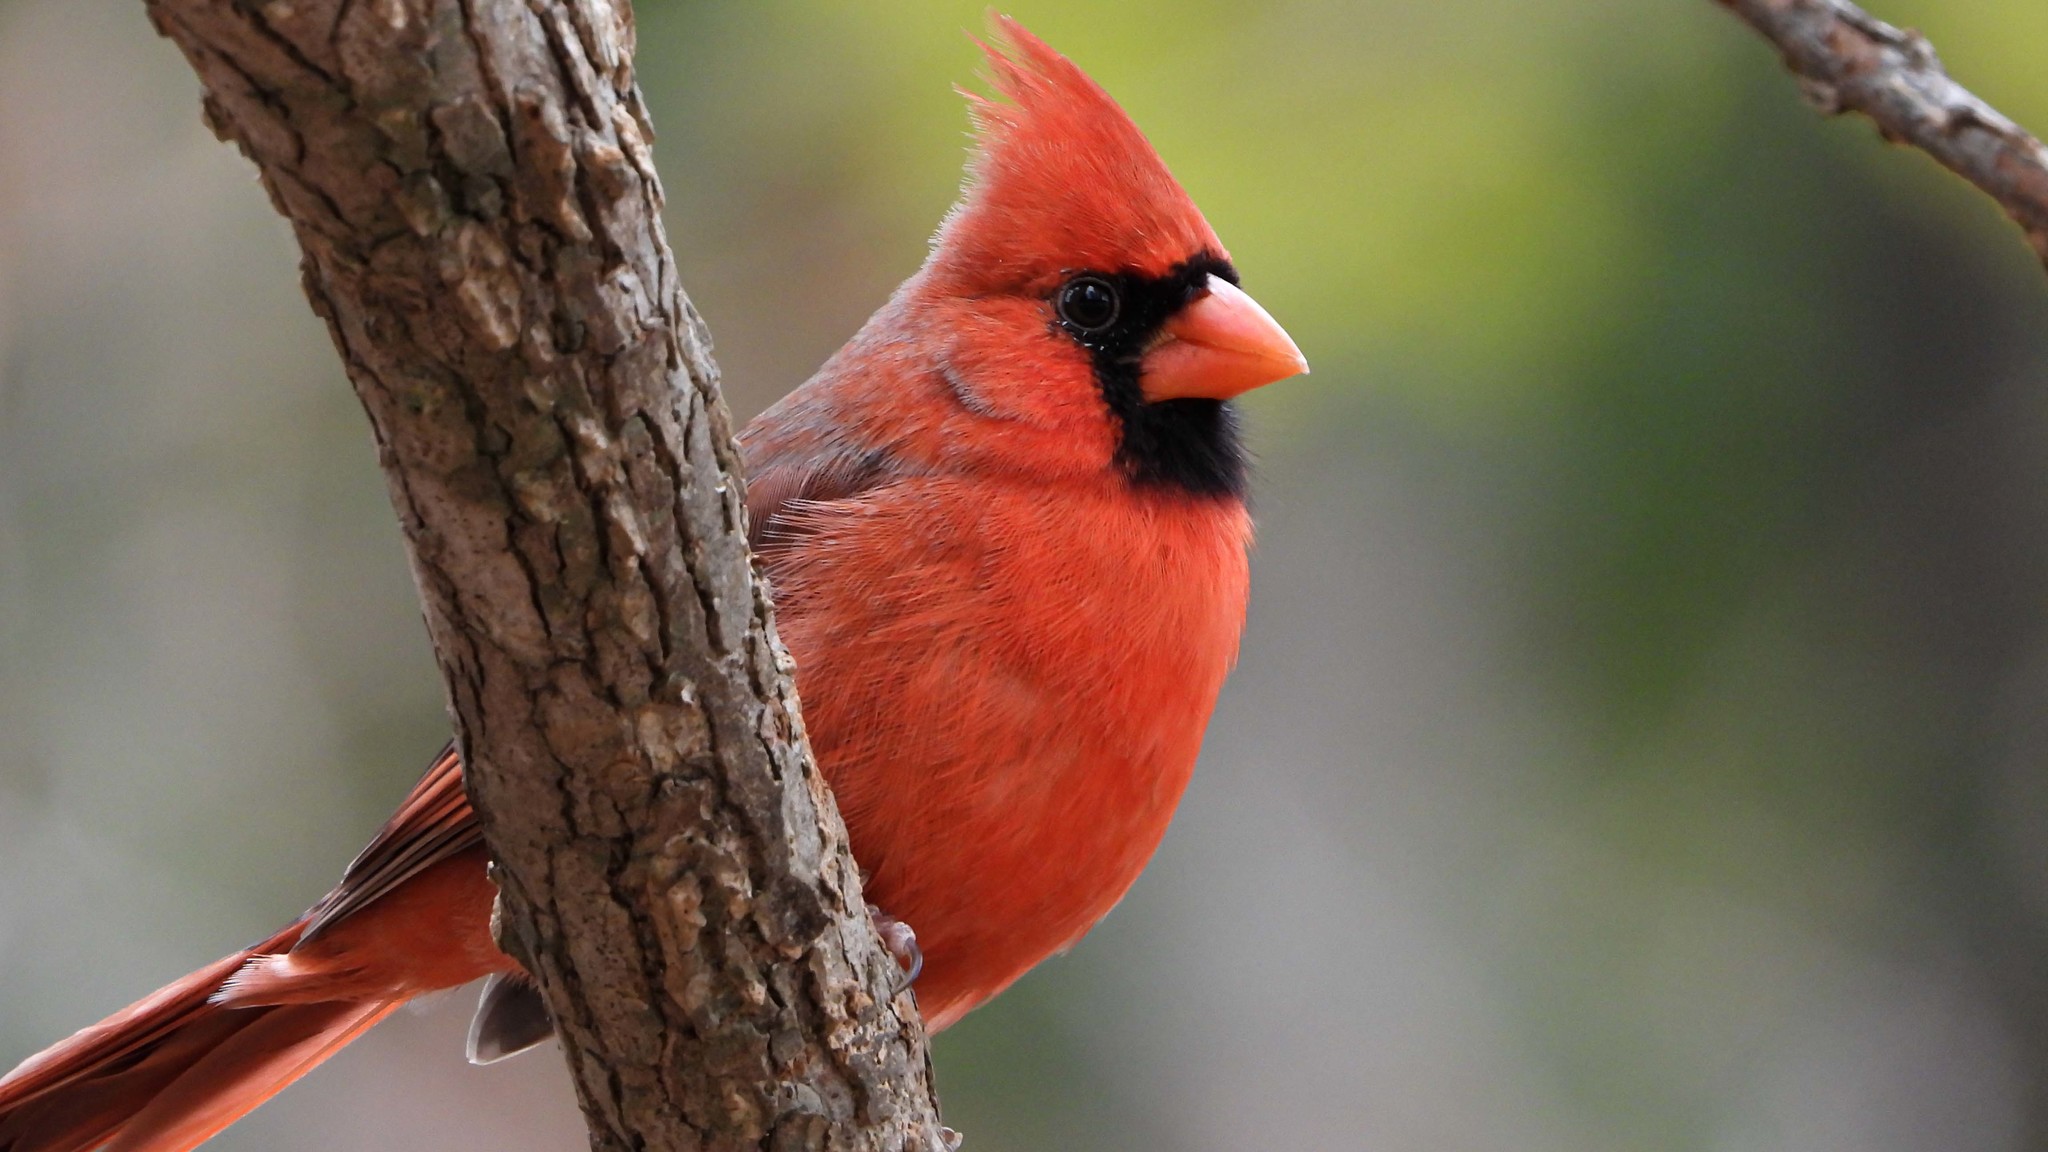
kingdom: Animalia
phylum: Chordata
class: Aves
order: Passeriformes
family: Cardinalidae
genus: Cardinalis
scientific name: Cardinalis cardinalis
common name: Northern cardinal
